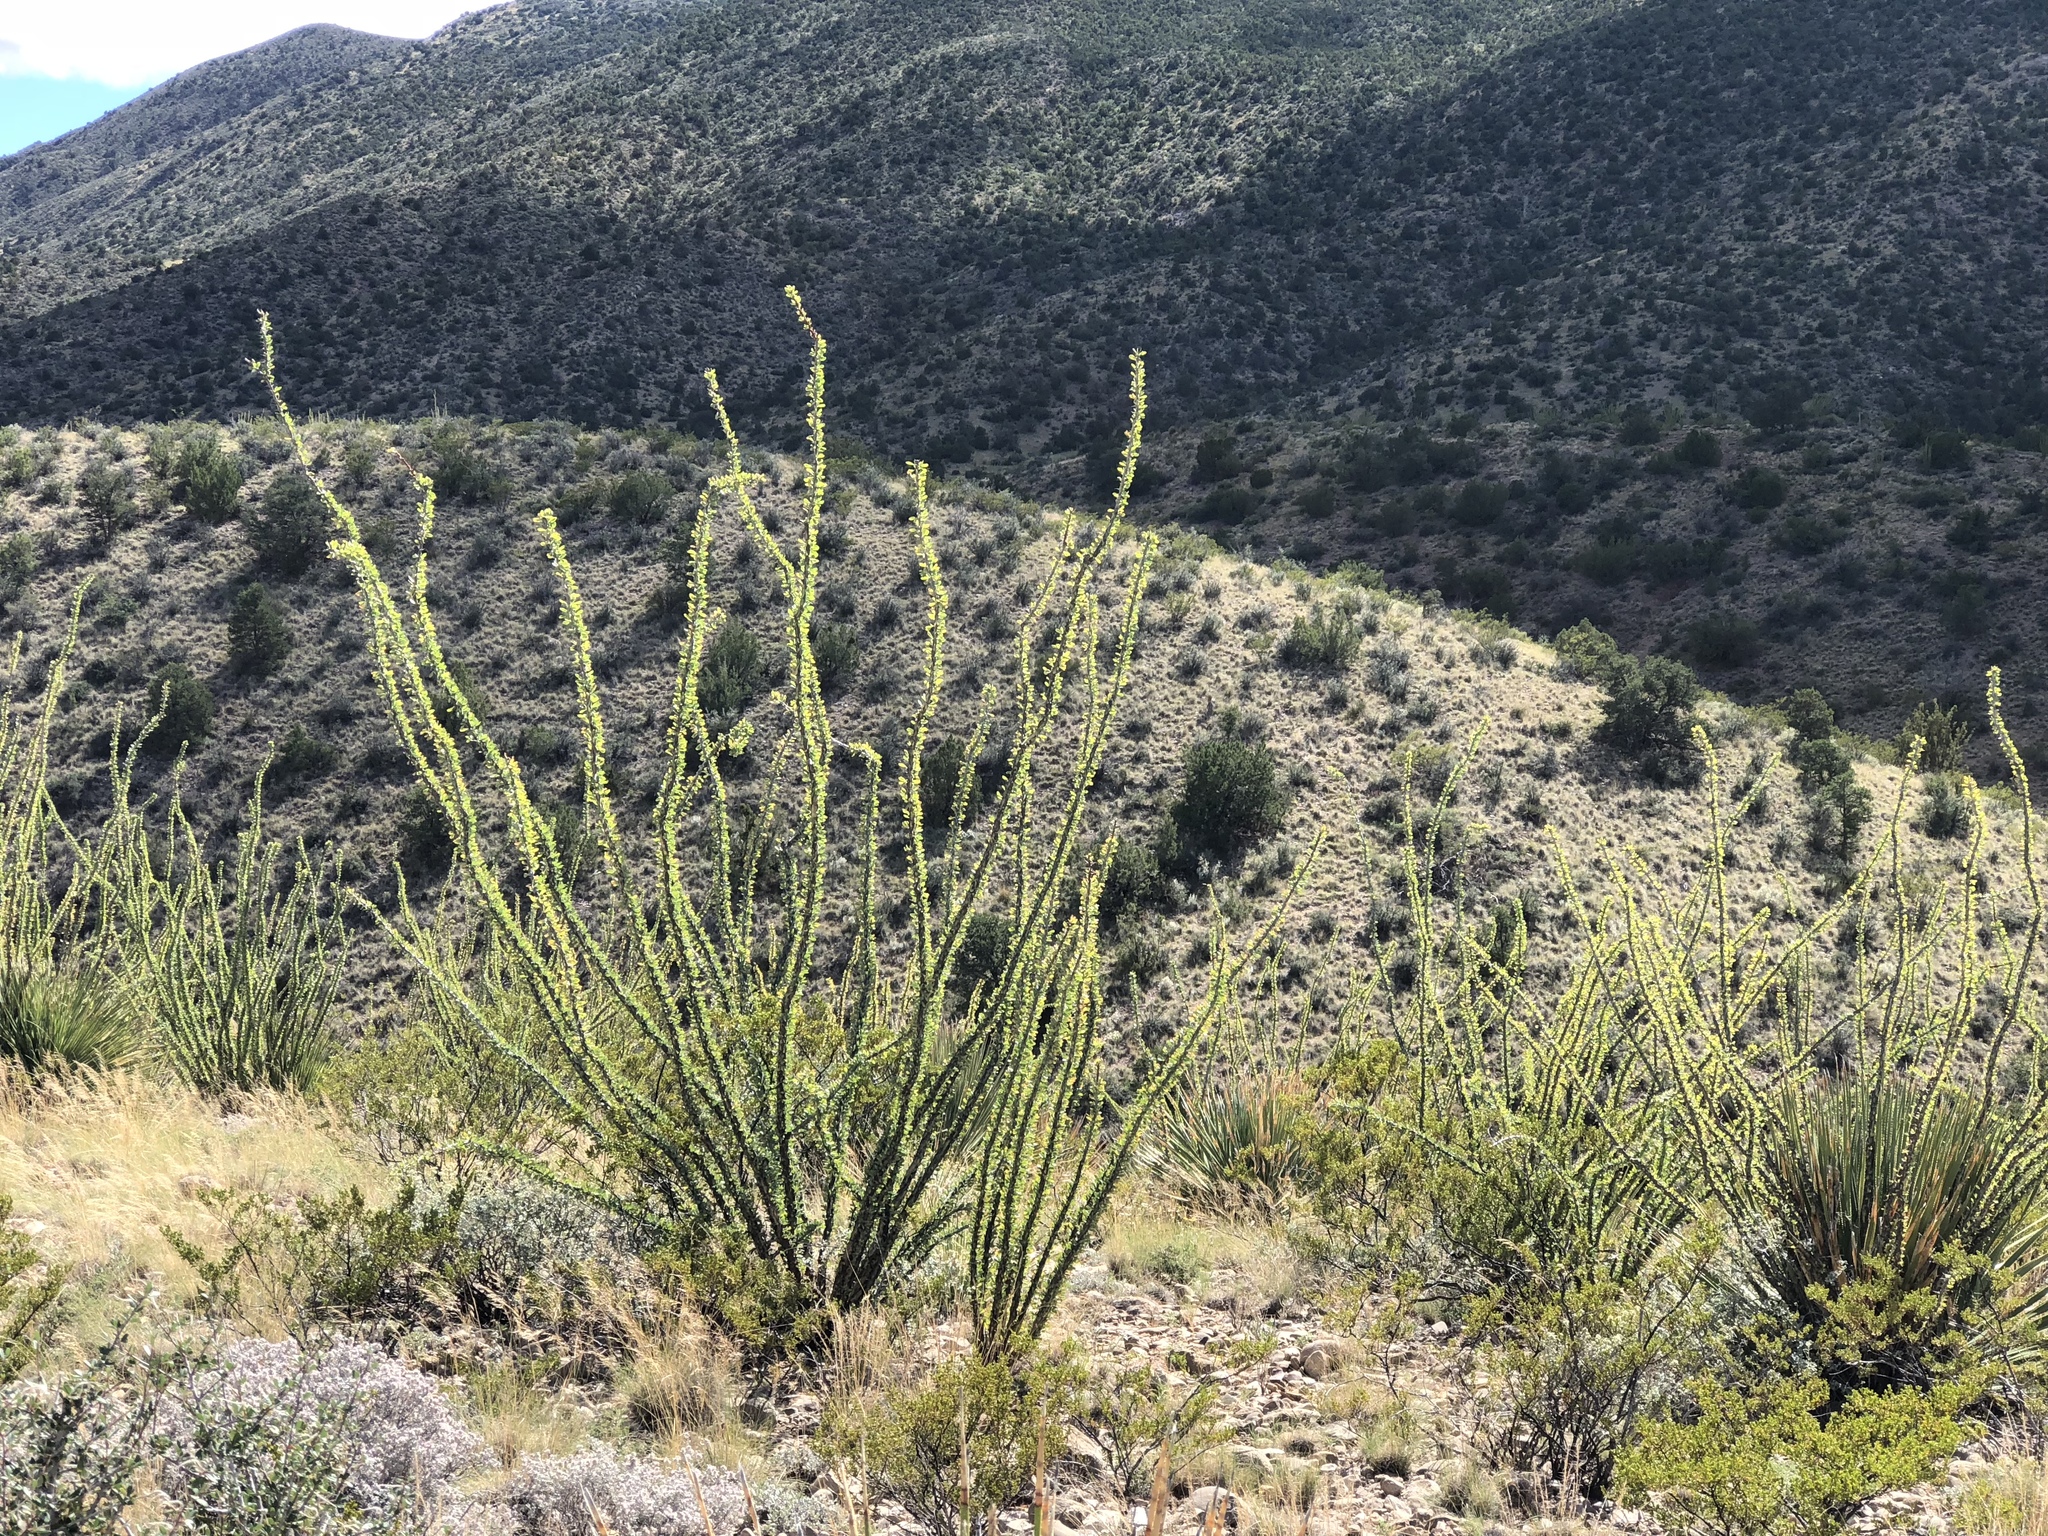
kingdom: Plantae
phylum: Tracheophyta
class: Magnoliopsida
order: Ericales
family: Fouquieriaceae
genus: Fouquieria
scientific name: Fouquieria splendens
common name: Vine-cactus
